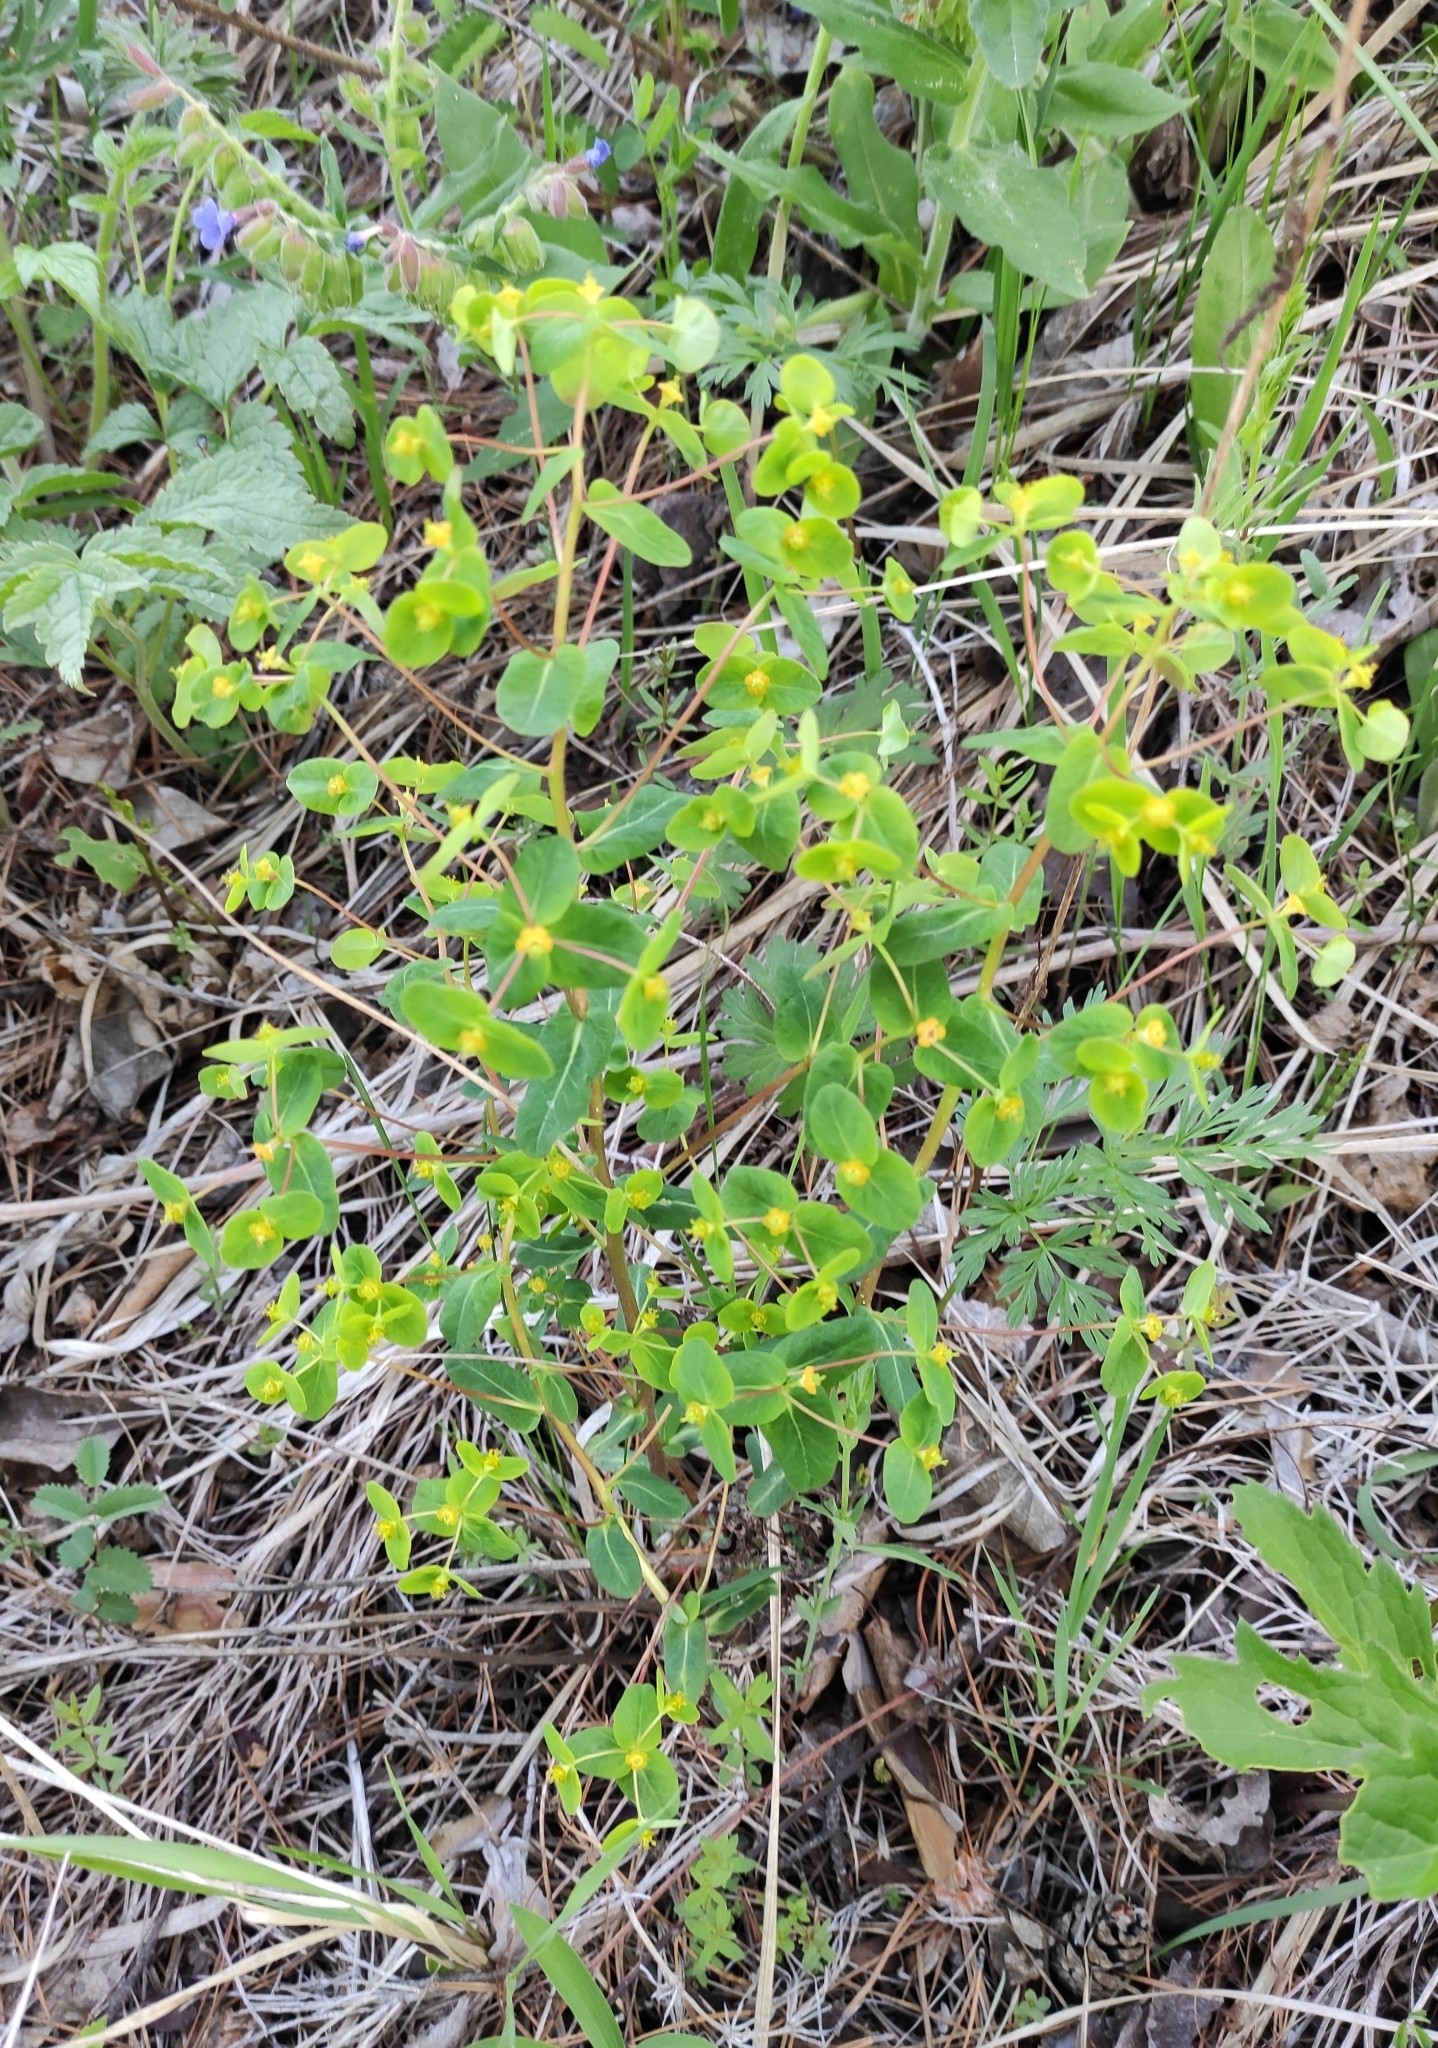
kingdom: Plantae
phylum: Tracheophyta
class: Magnoliopsida
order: Malpighiales
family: Euphorbiaceae
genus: Euphorbia
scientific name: Euphorbia jenisseiensis
